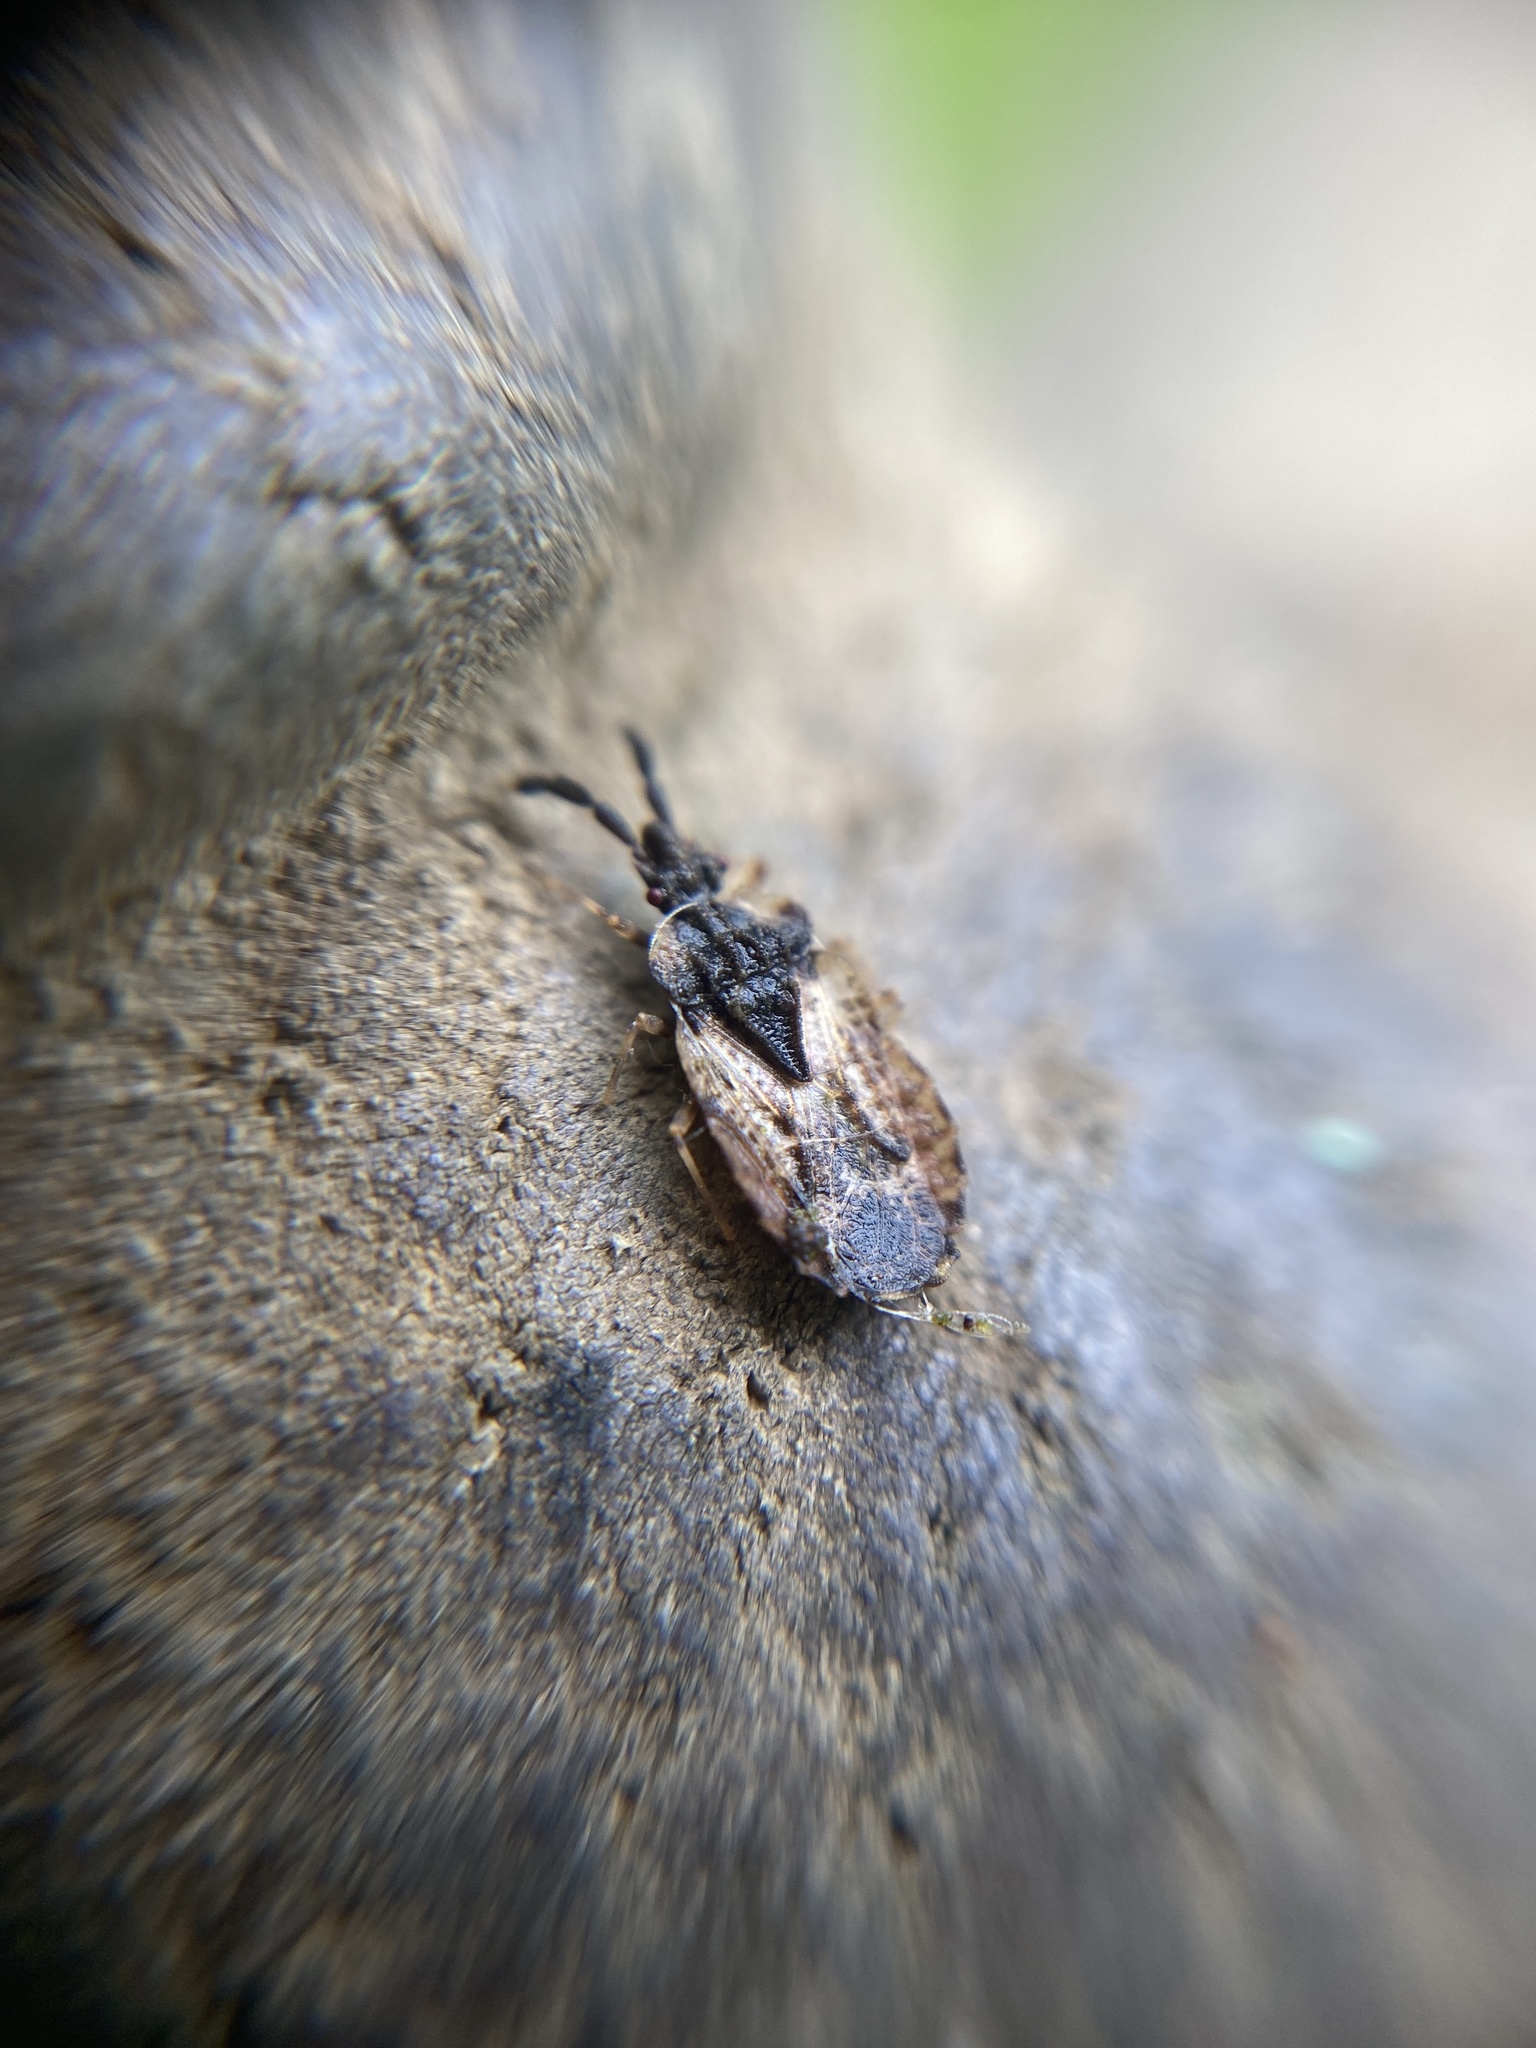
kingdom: Animalia
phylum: Arthropoda
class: Insecta
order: Hemiptera
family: Aradidae
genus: Aradus
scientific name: Aradus depressus
